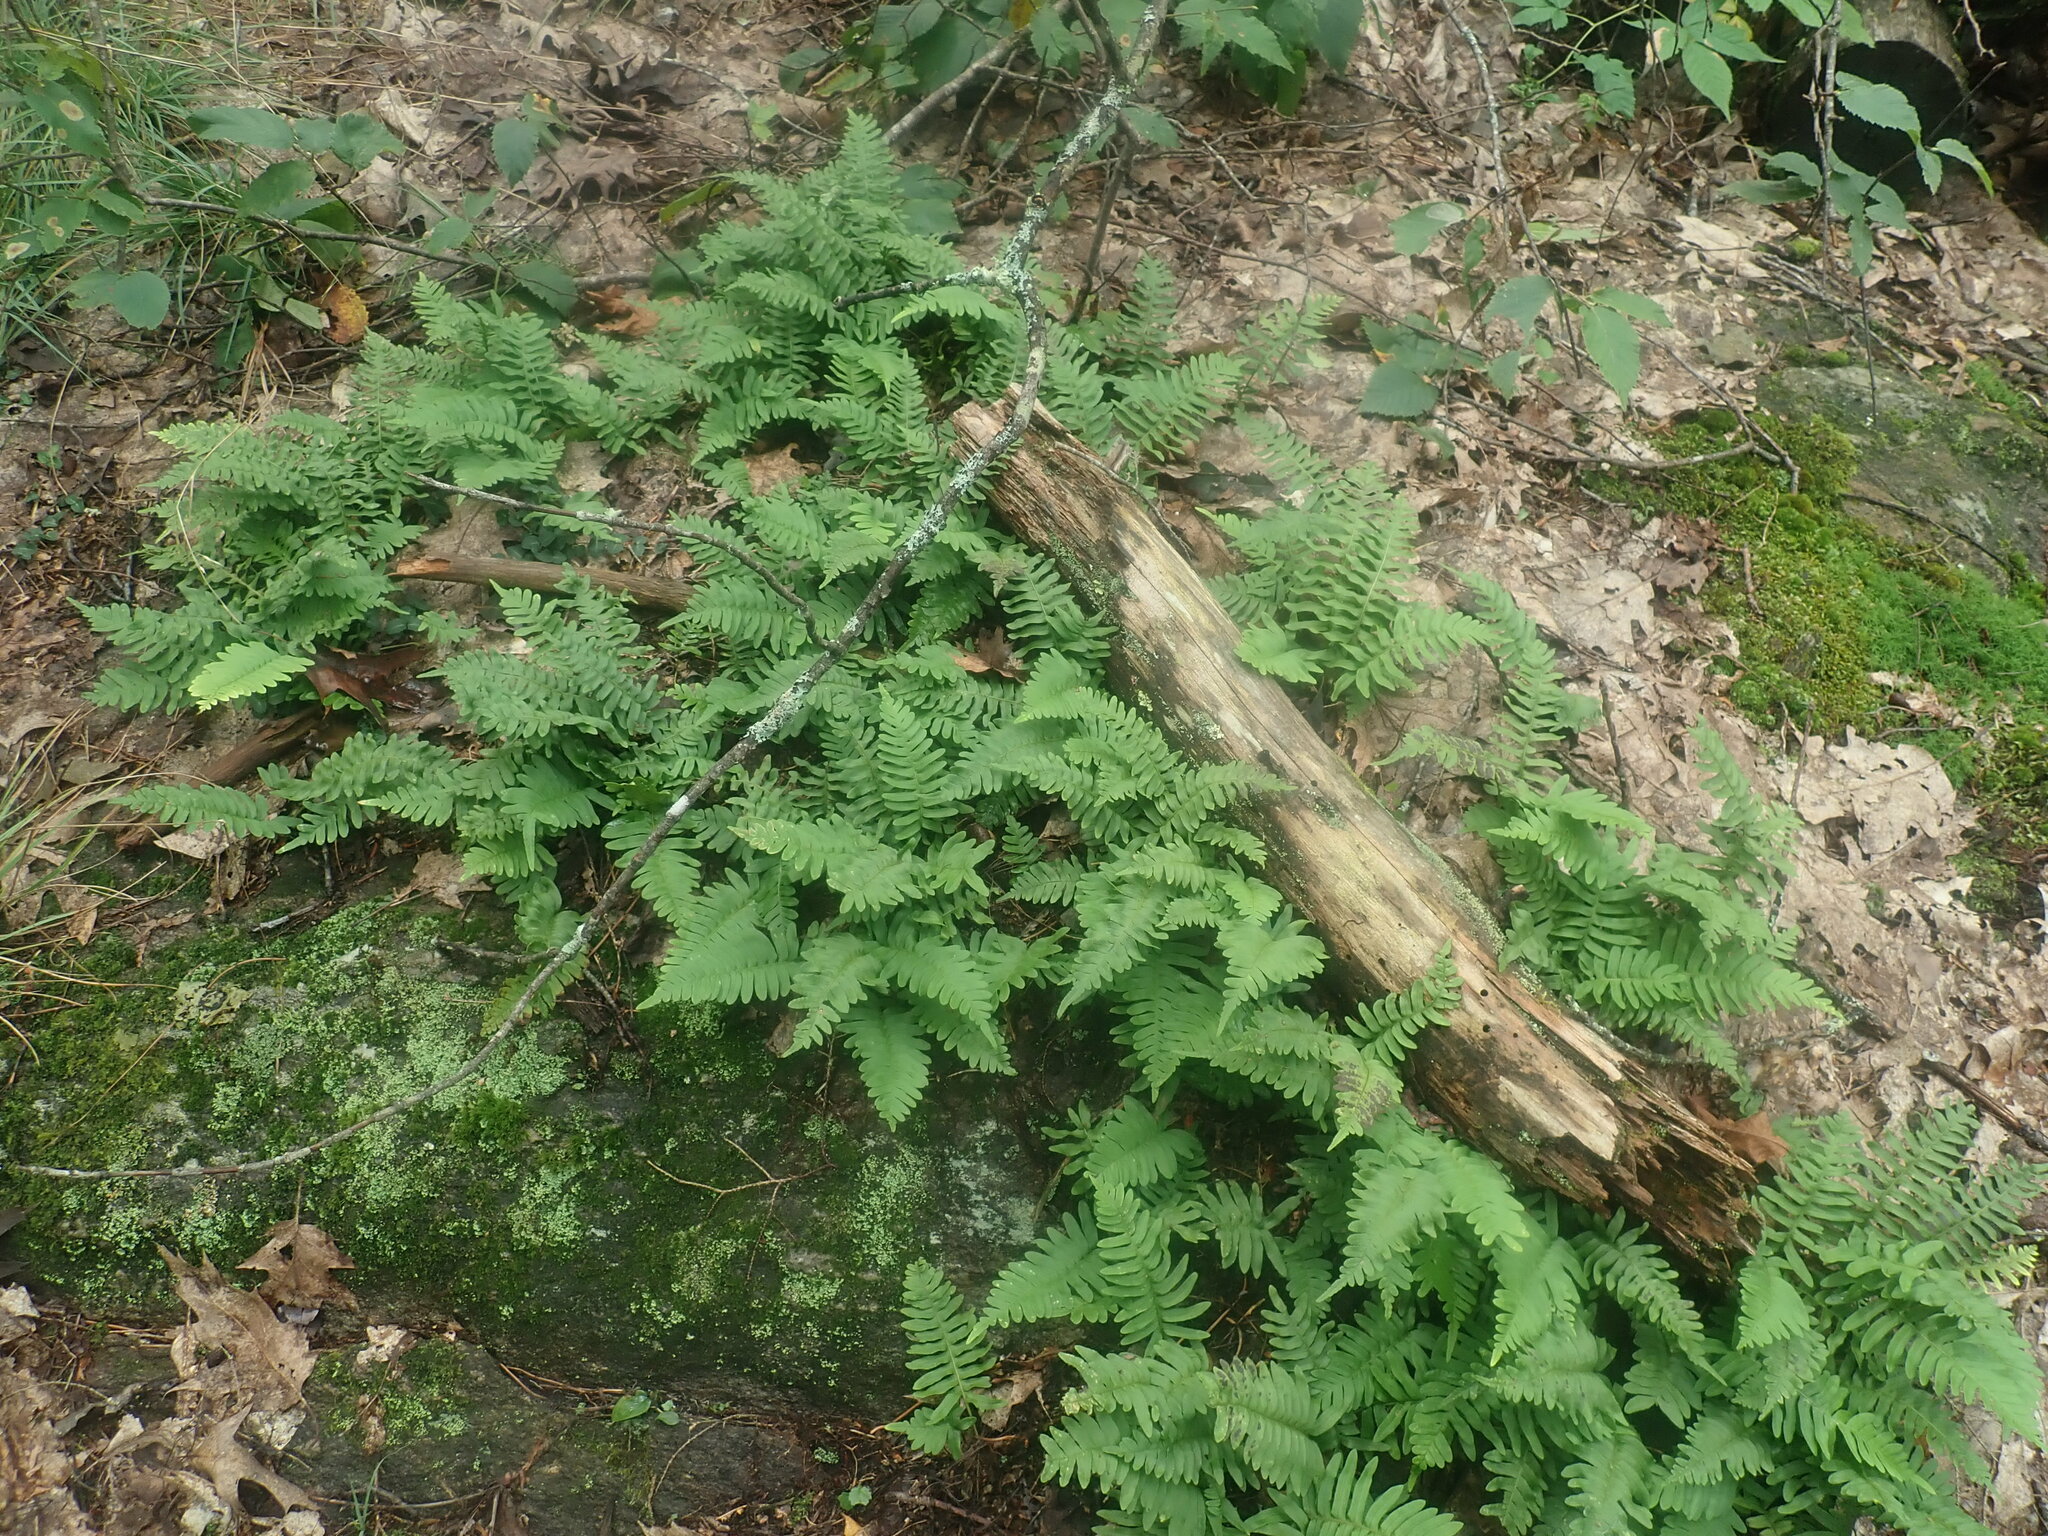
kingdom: Plantae
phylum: Tracheophyta
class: Polypodiopsida
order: Polypodiales
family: Polypodiaceae
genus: Polypodium
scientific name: Polypodium
